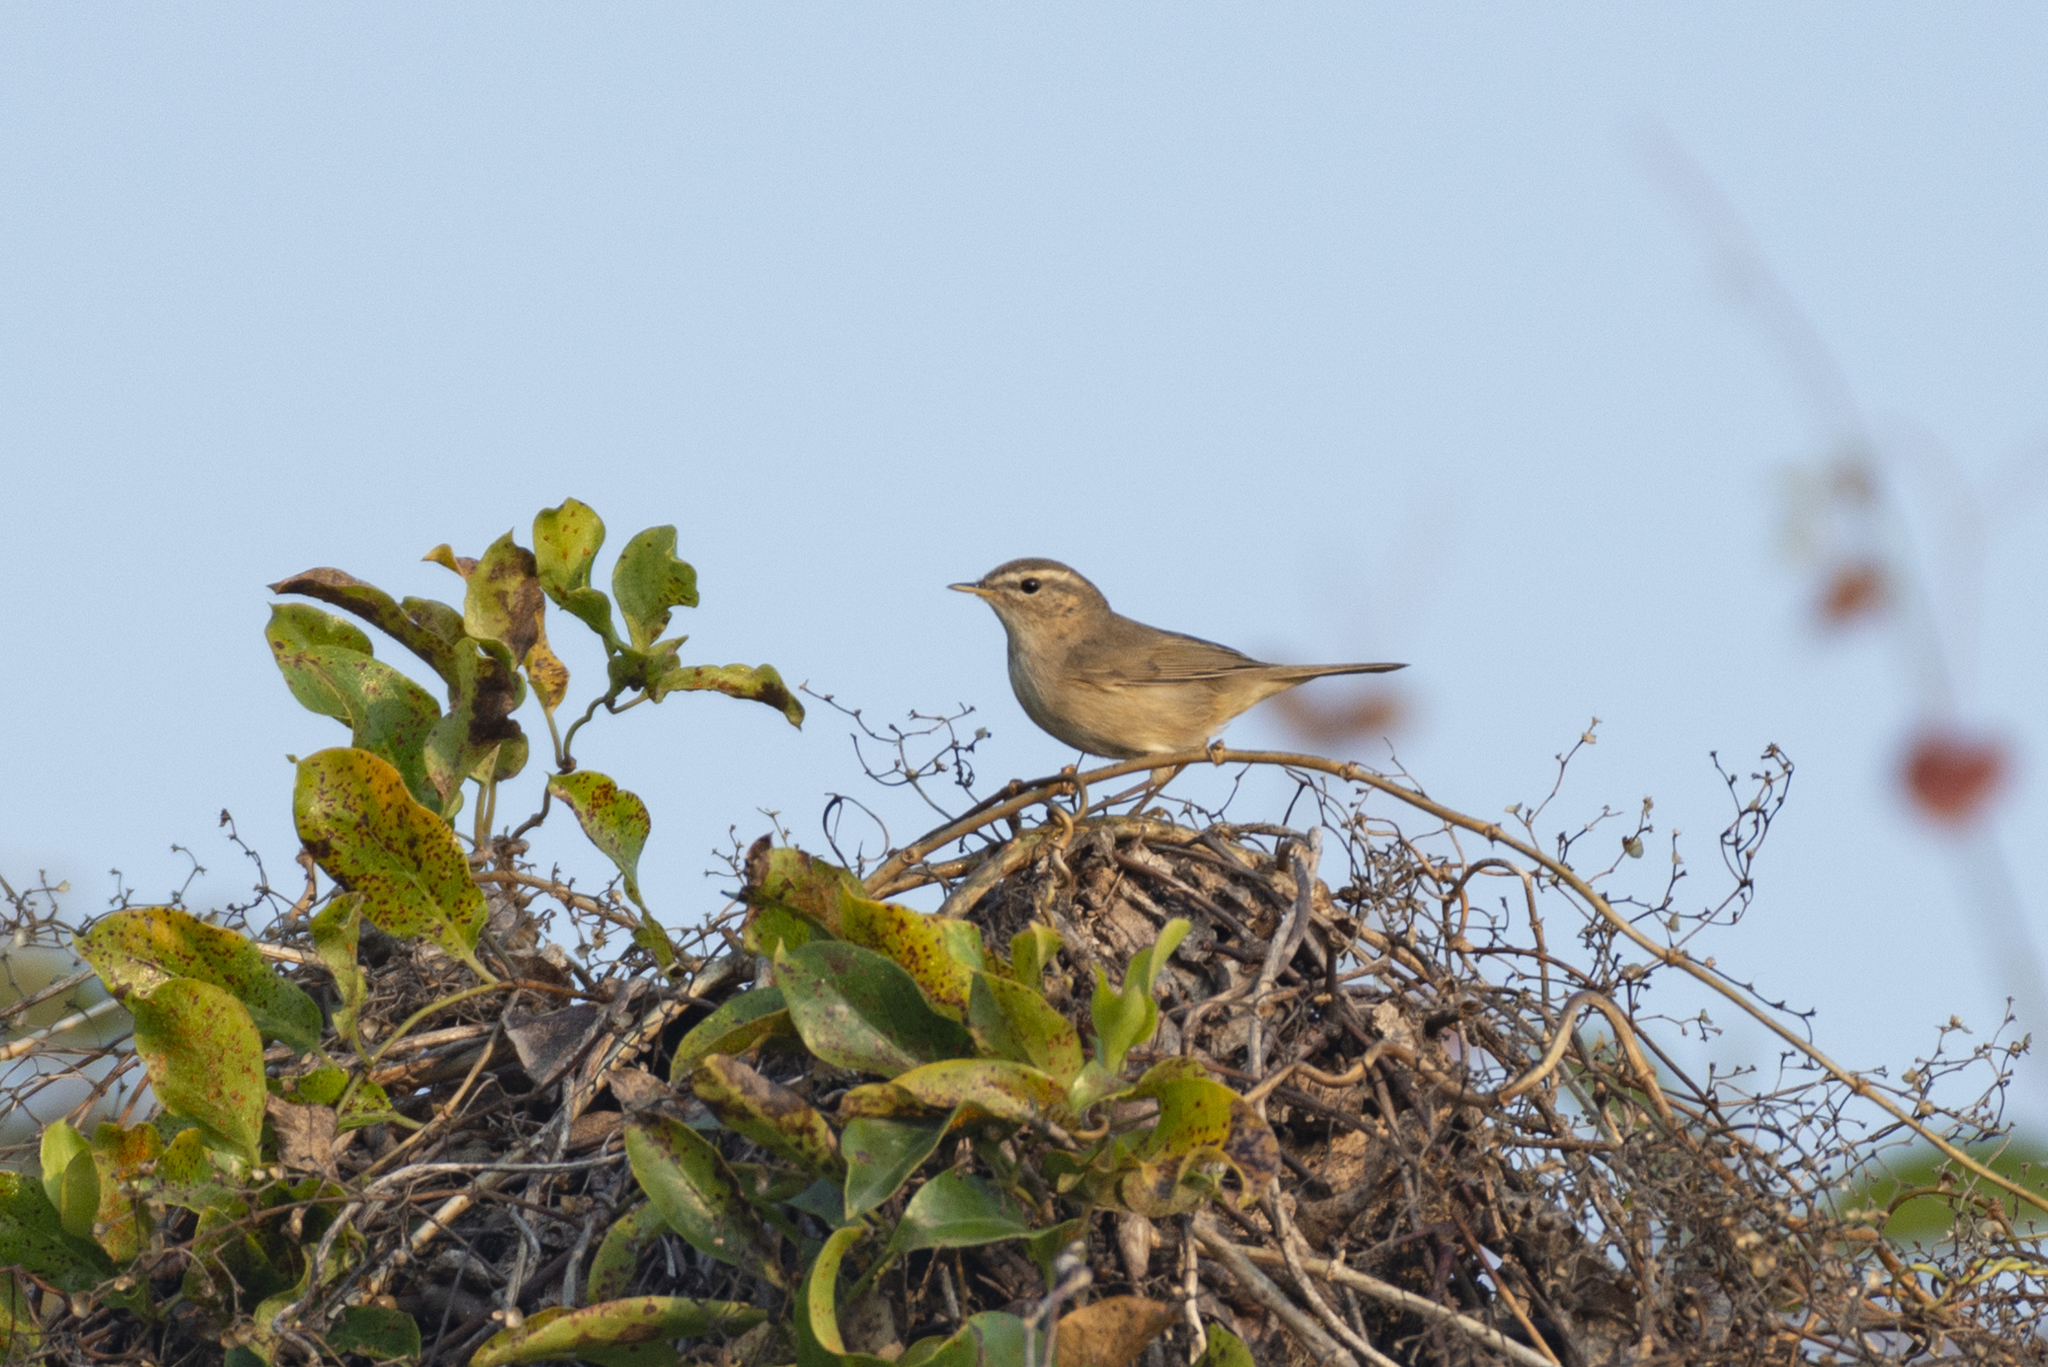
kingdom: Animalia
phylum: Chordata
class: Aves
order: Passeriformes
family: Phylloscopidae
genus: Phylloscopus
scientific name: Phylloscopus fuscatus
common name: Dusky warbler
